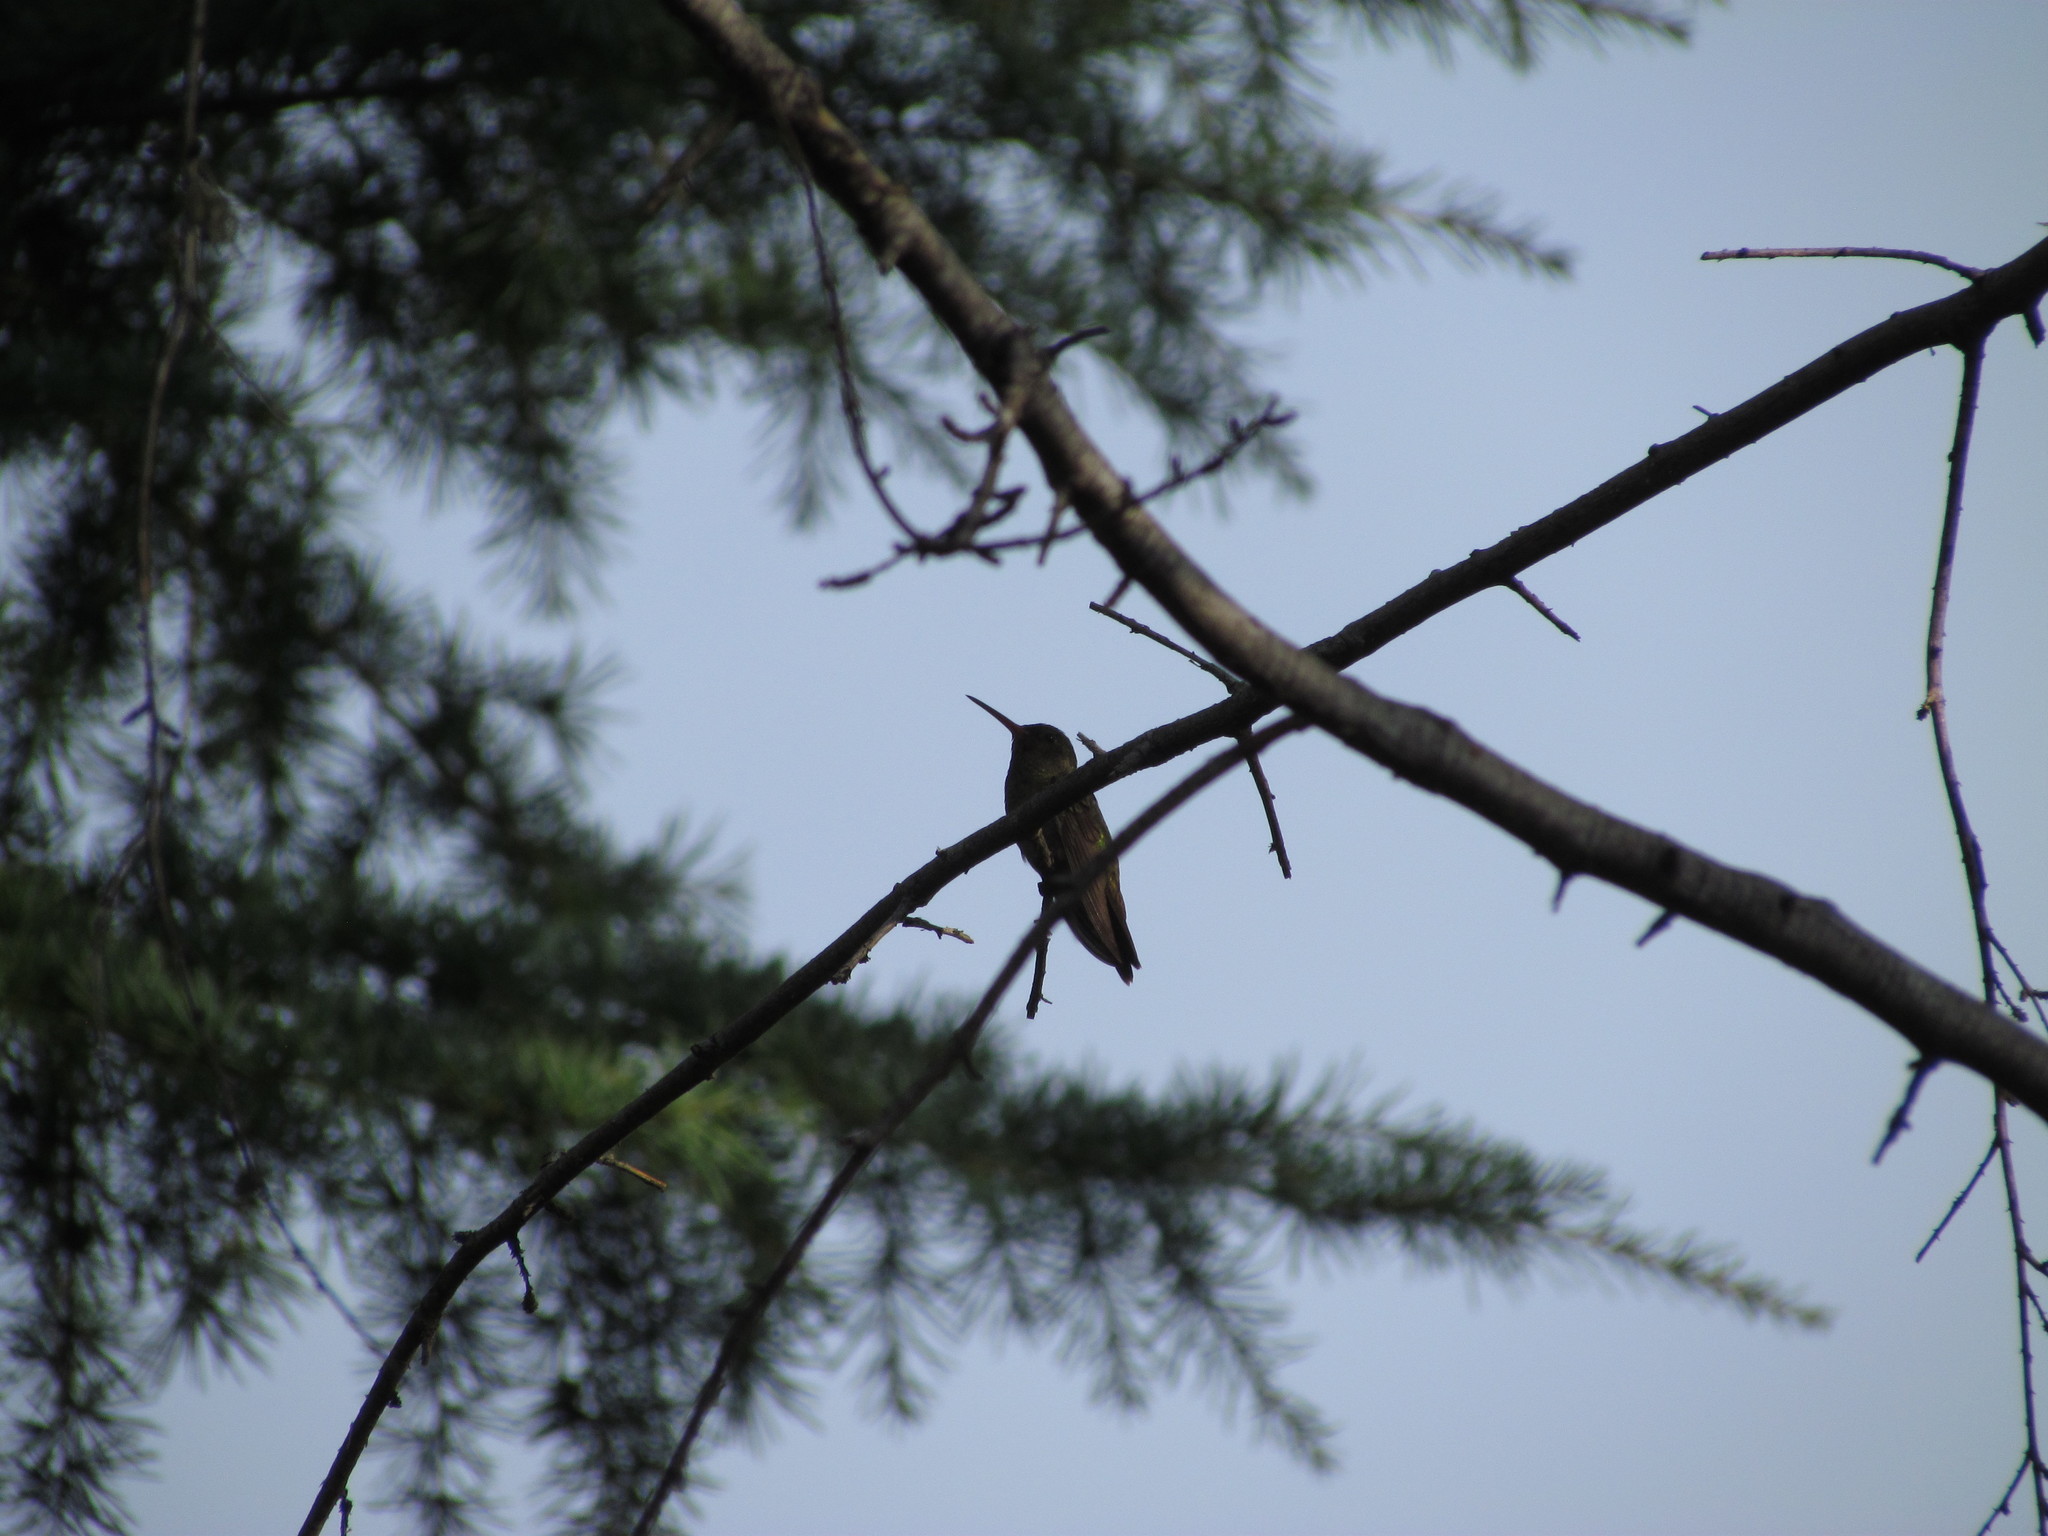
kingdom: Animalia
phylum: Chordata
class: Aves
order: Apodiformes
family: Trochilidae
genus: Chlorostilbon
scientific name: Chlorostilbon lucidus
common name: Glittering-bellied emerald
